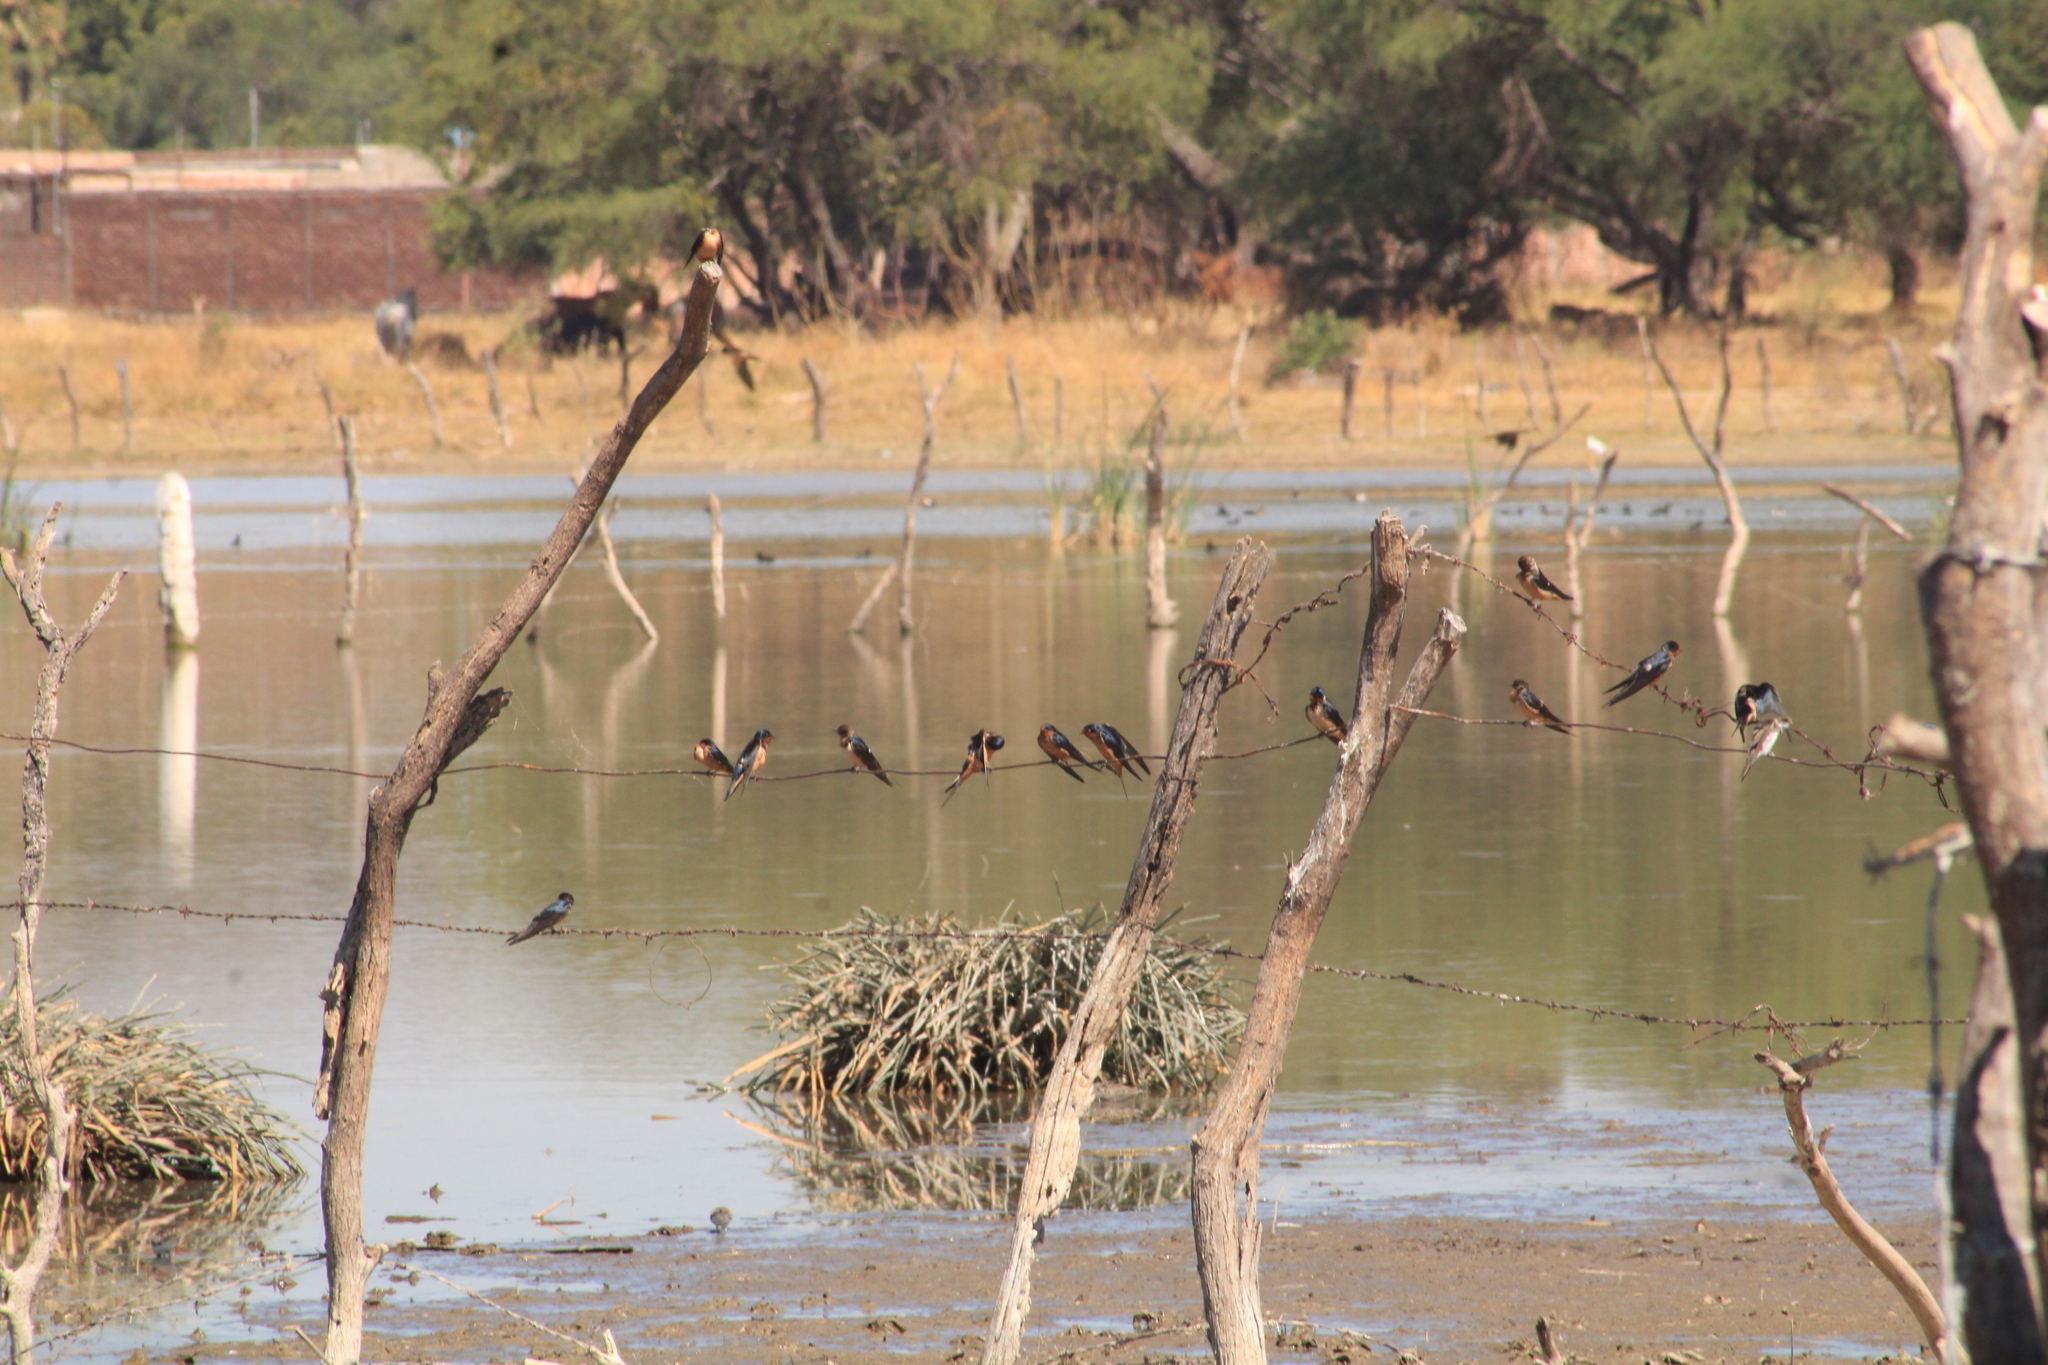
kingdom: Animalia
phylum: Chordata
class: Aves
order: Passeriformes
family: Hirundinidae
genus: Hirundo
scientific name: Hirundo rustica
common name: Barn swallow
